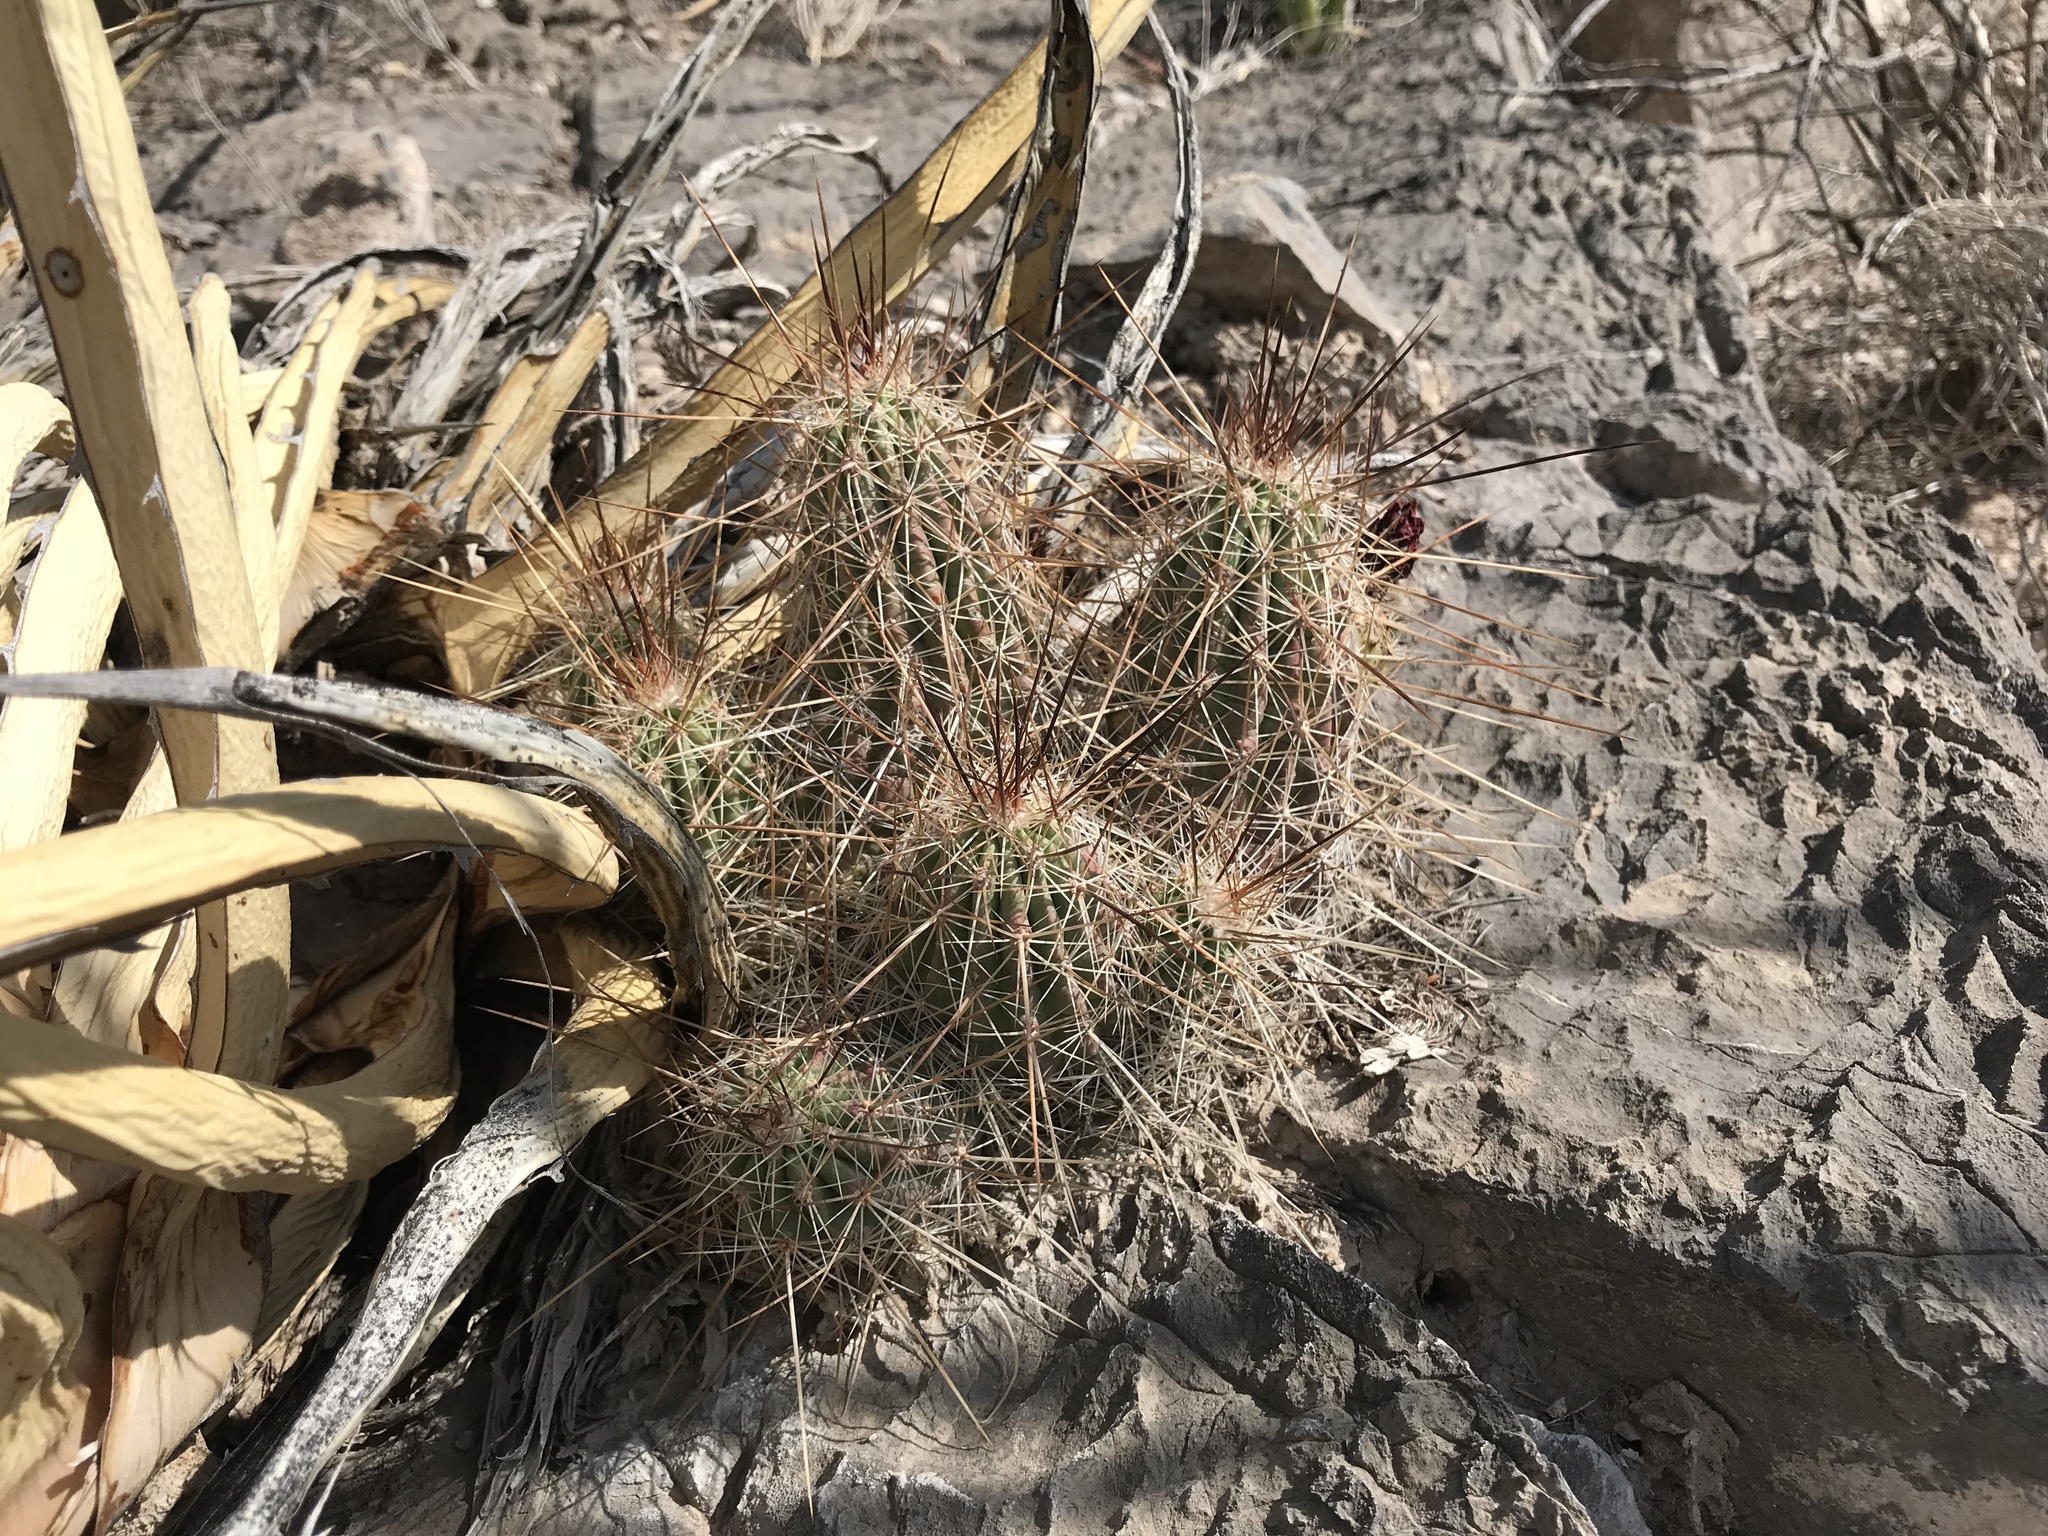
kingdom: Plantae
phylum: Tracheophyta
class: Magnoliopsida
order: Caryophyllales
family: Cactaceae
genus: Echinocereus
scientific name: Echinocereus stramineus
